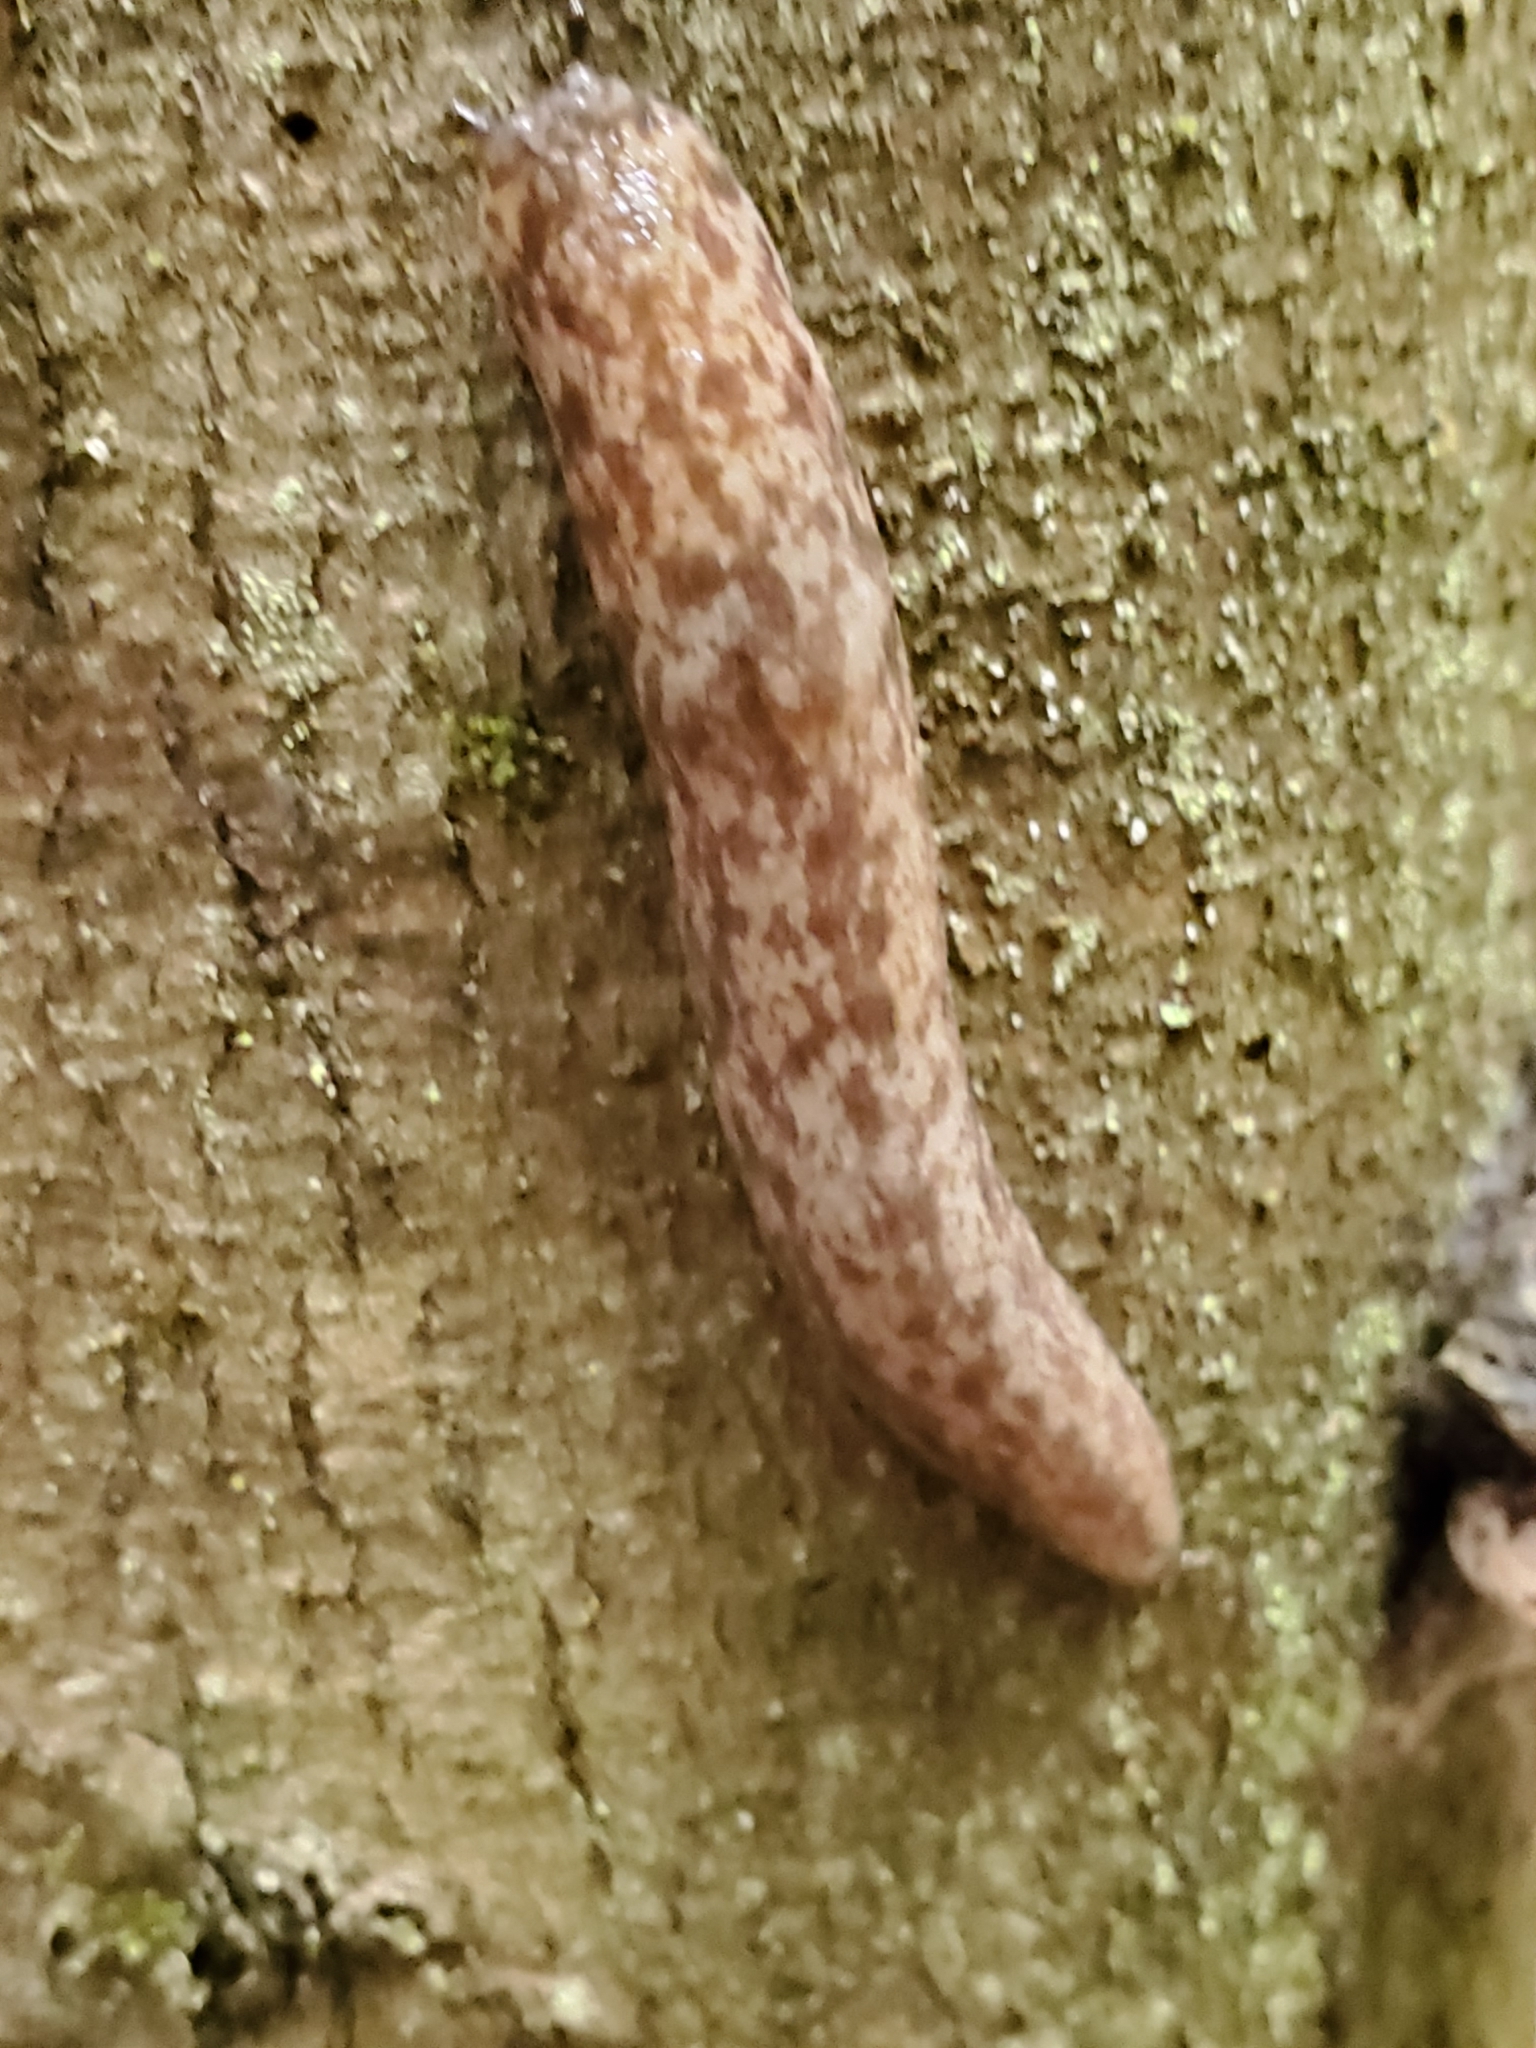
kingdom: Animalia
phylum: Mollusca
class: Gastropoda
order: Stylommatophora
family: Philomycidae
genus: Philomycus
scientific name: Philomycus flexuolaris
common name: Winding mantleslug
